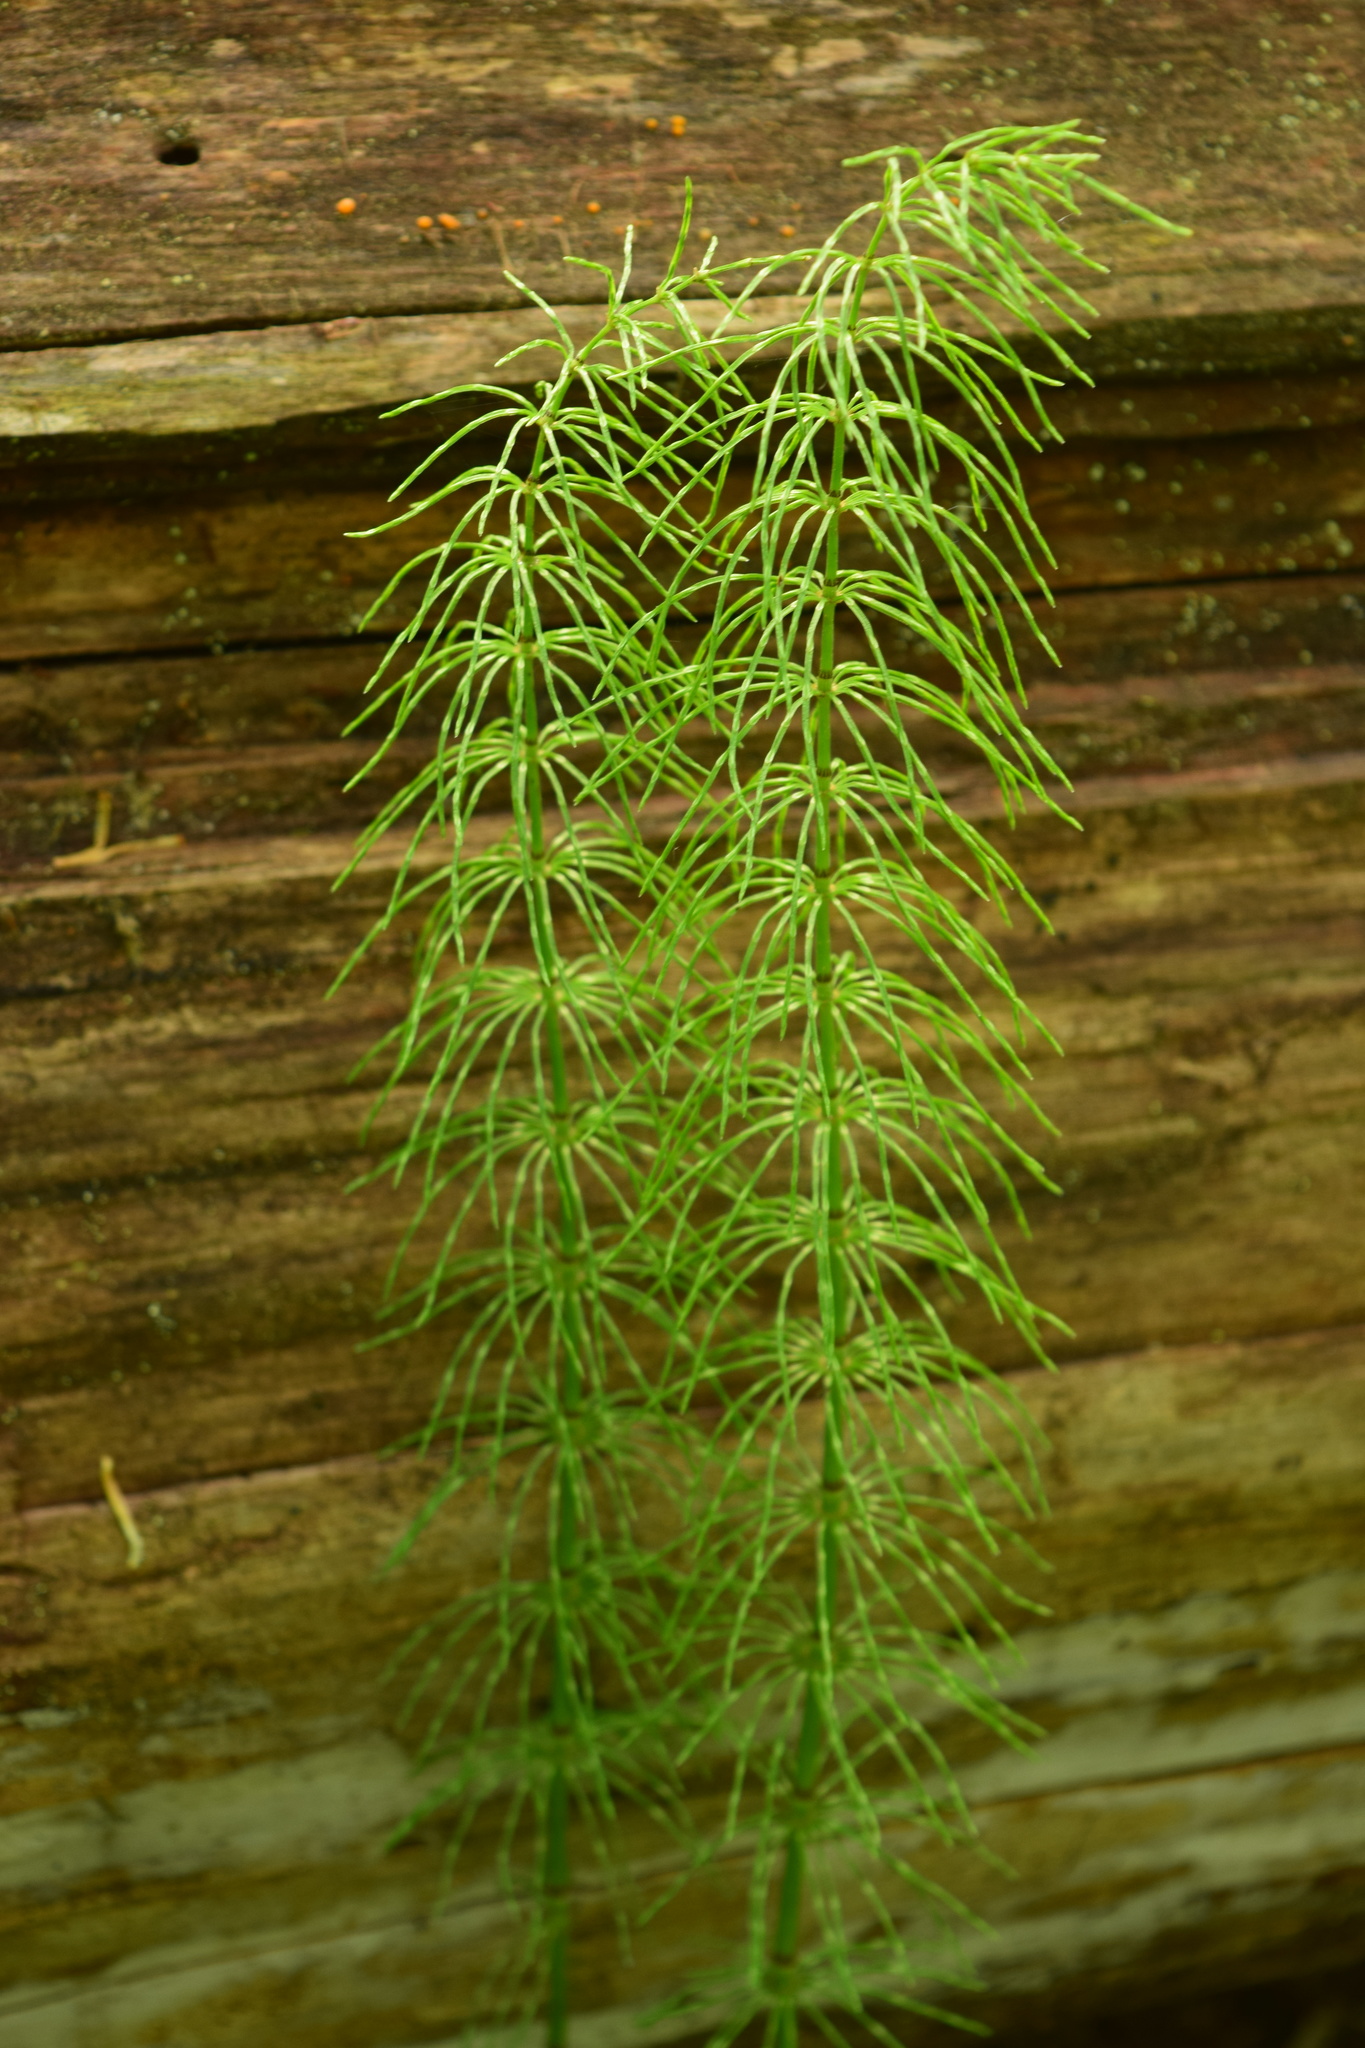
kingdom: Plantae
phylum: Tracheophyta
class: Polypodiopsida
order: Equisetales
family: Equisetaceae
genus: Equisetum
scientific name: Equisetum pratense
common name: Meadow horsetail
